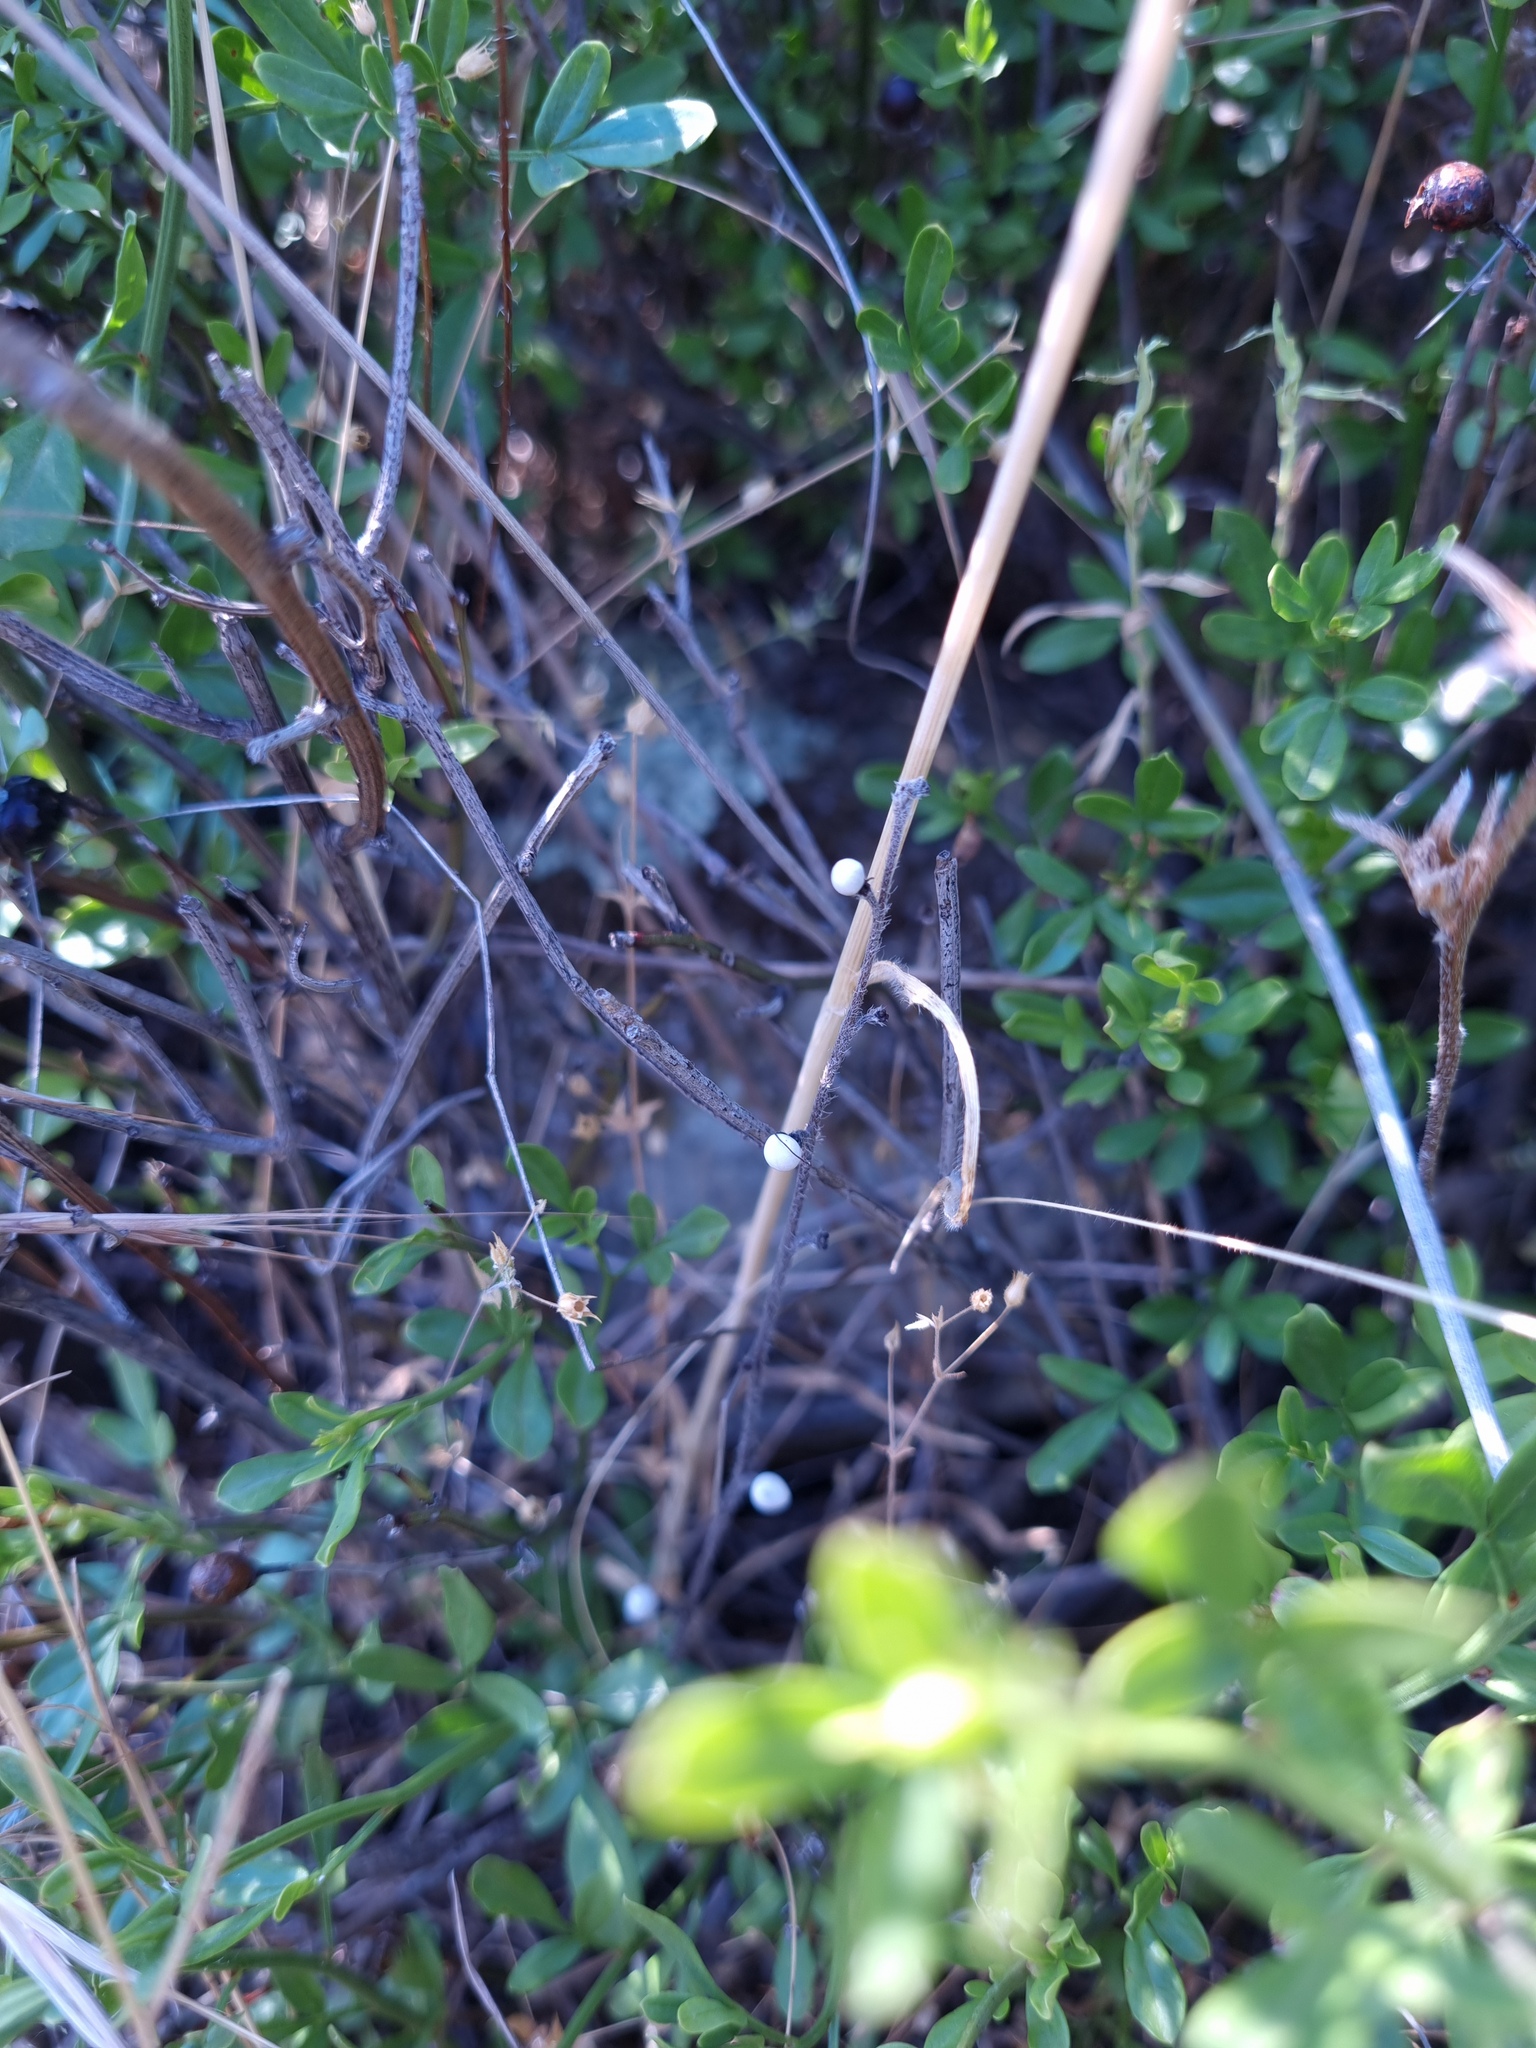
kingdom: Plantae
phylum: Tracheophyta
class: Magnoliopsida
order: Lamiales
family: Oleaceae
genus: Chrysojasminum
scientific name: Chrysojasminum fruticans
